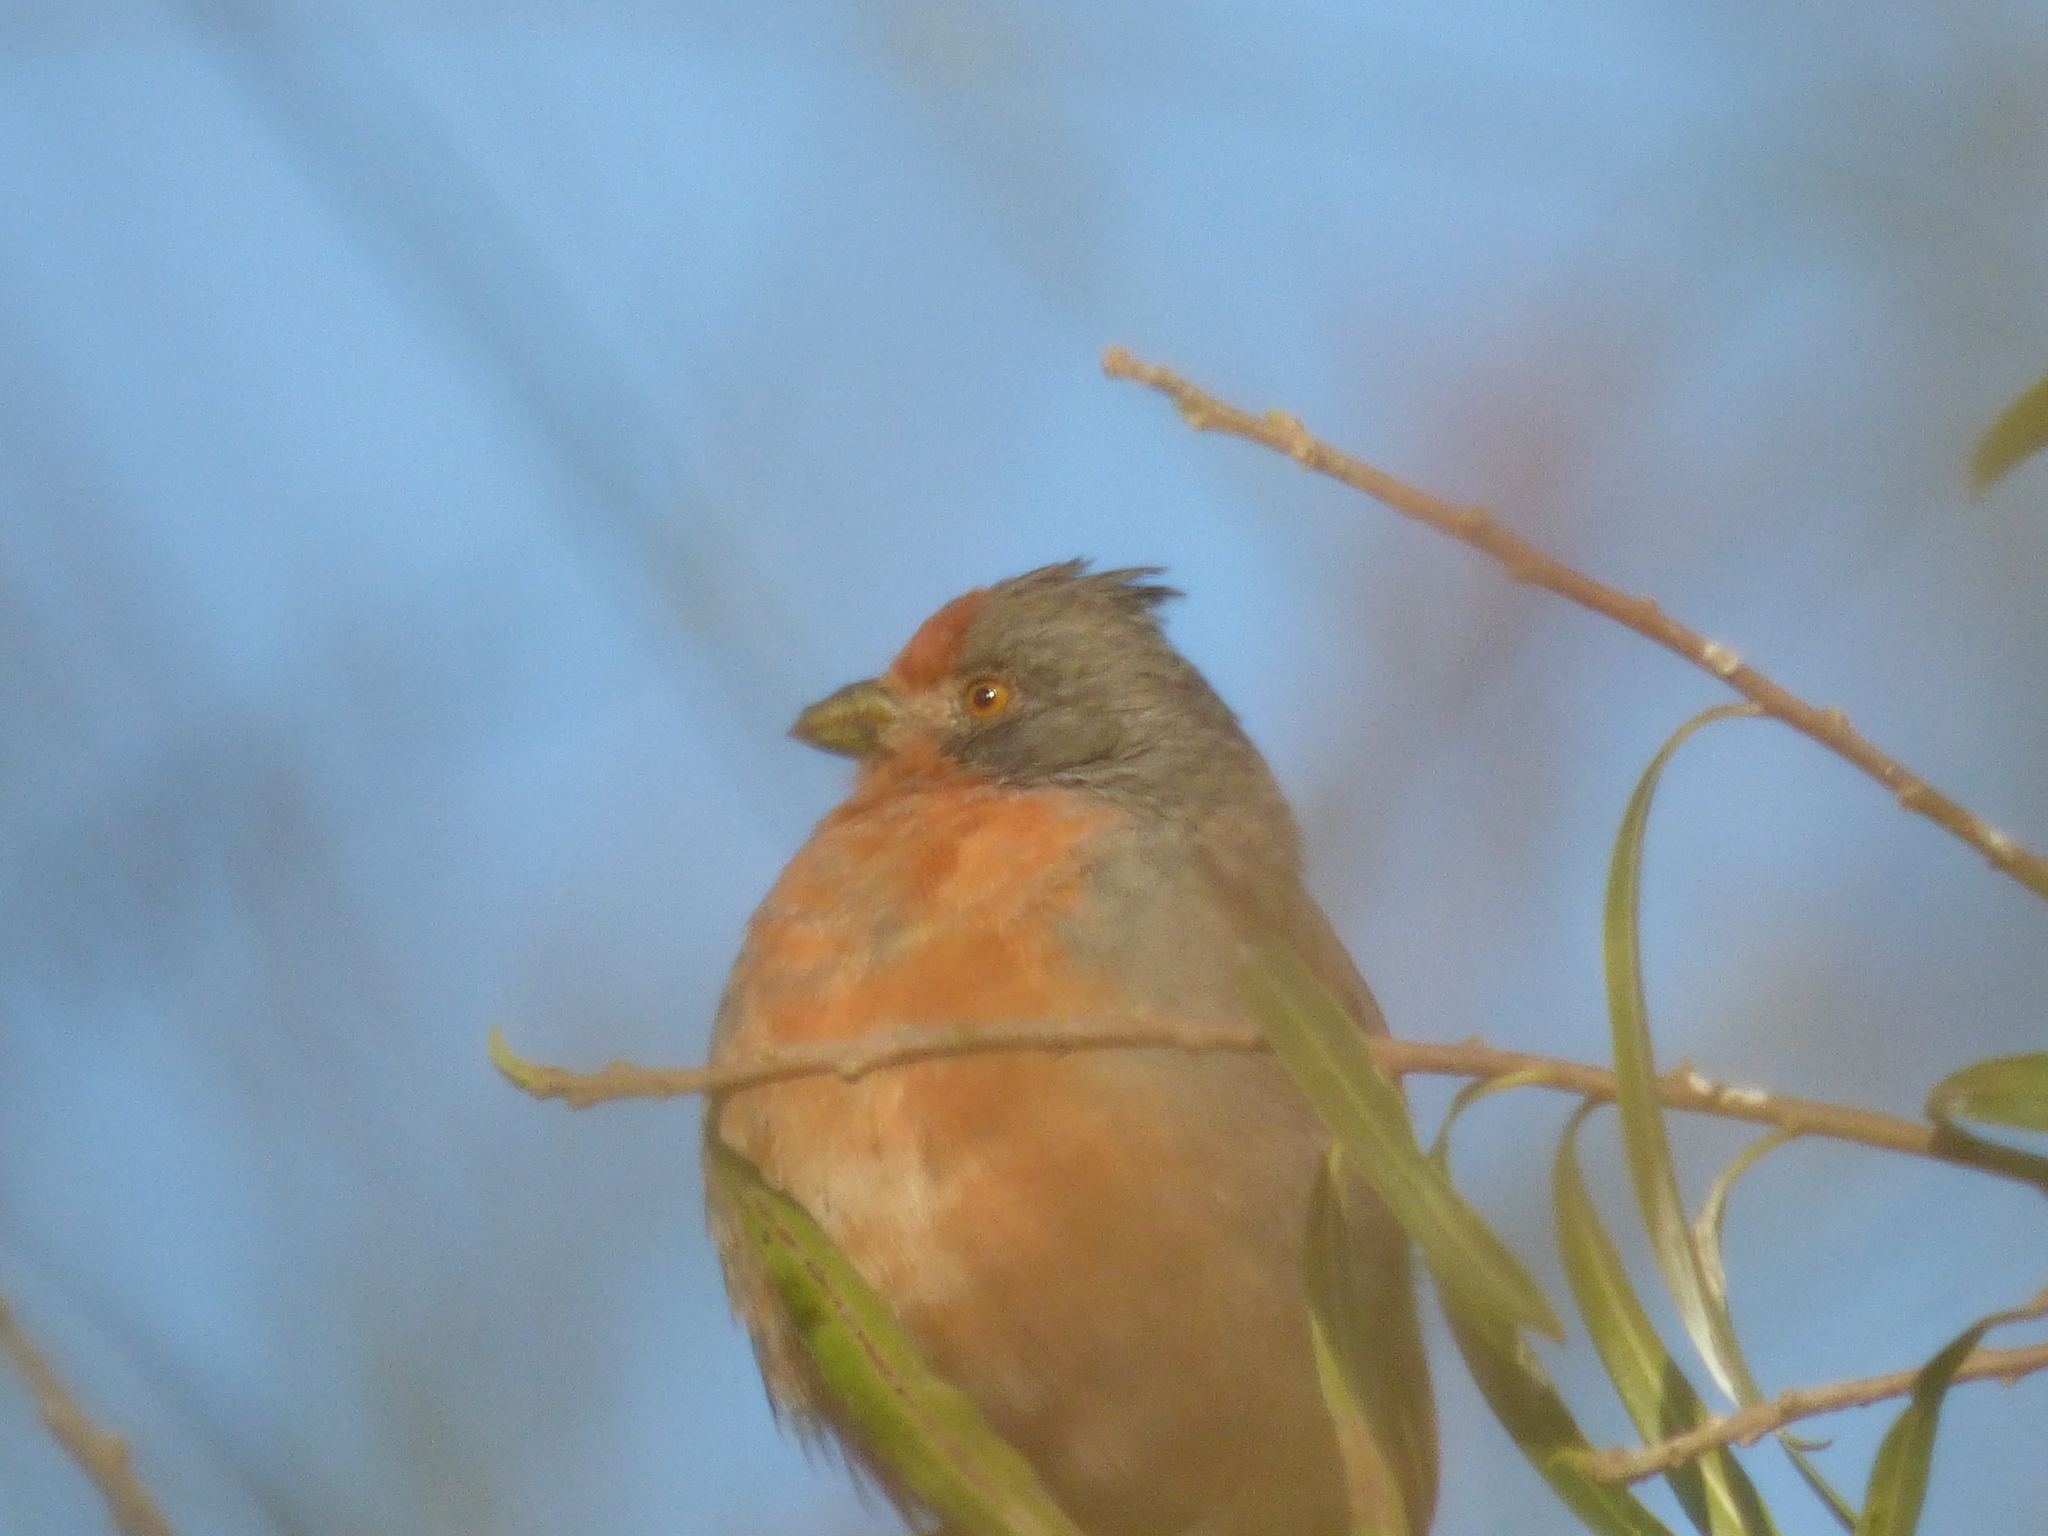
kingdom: Animalia
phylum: Chordata
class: Aves
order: Passeriformes
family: Cotingidae
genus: Phytotoma
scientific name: Phytotoma rutila
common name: White-tipped plantcutter
